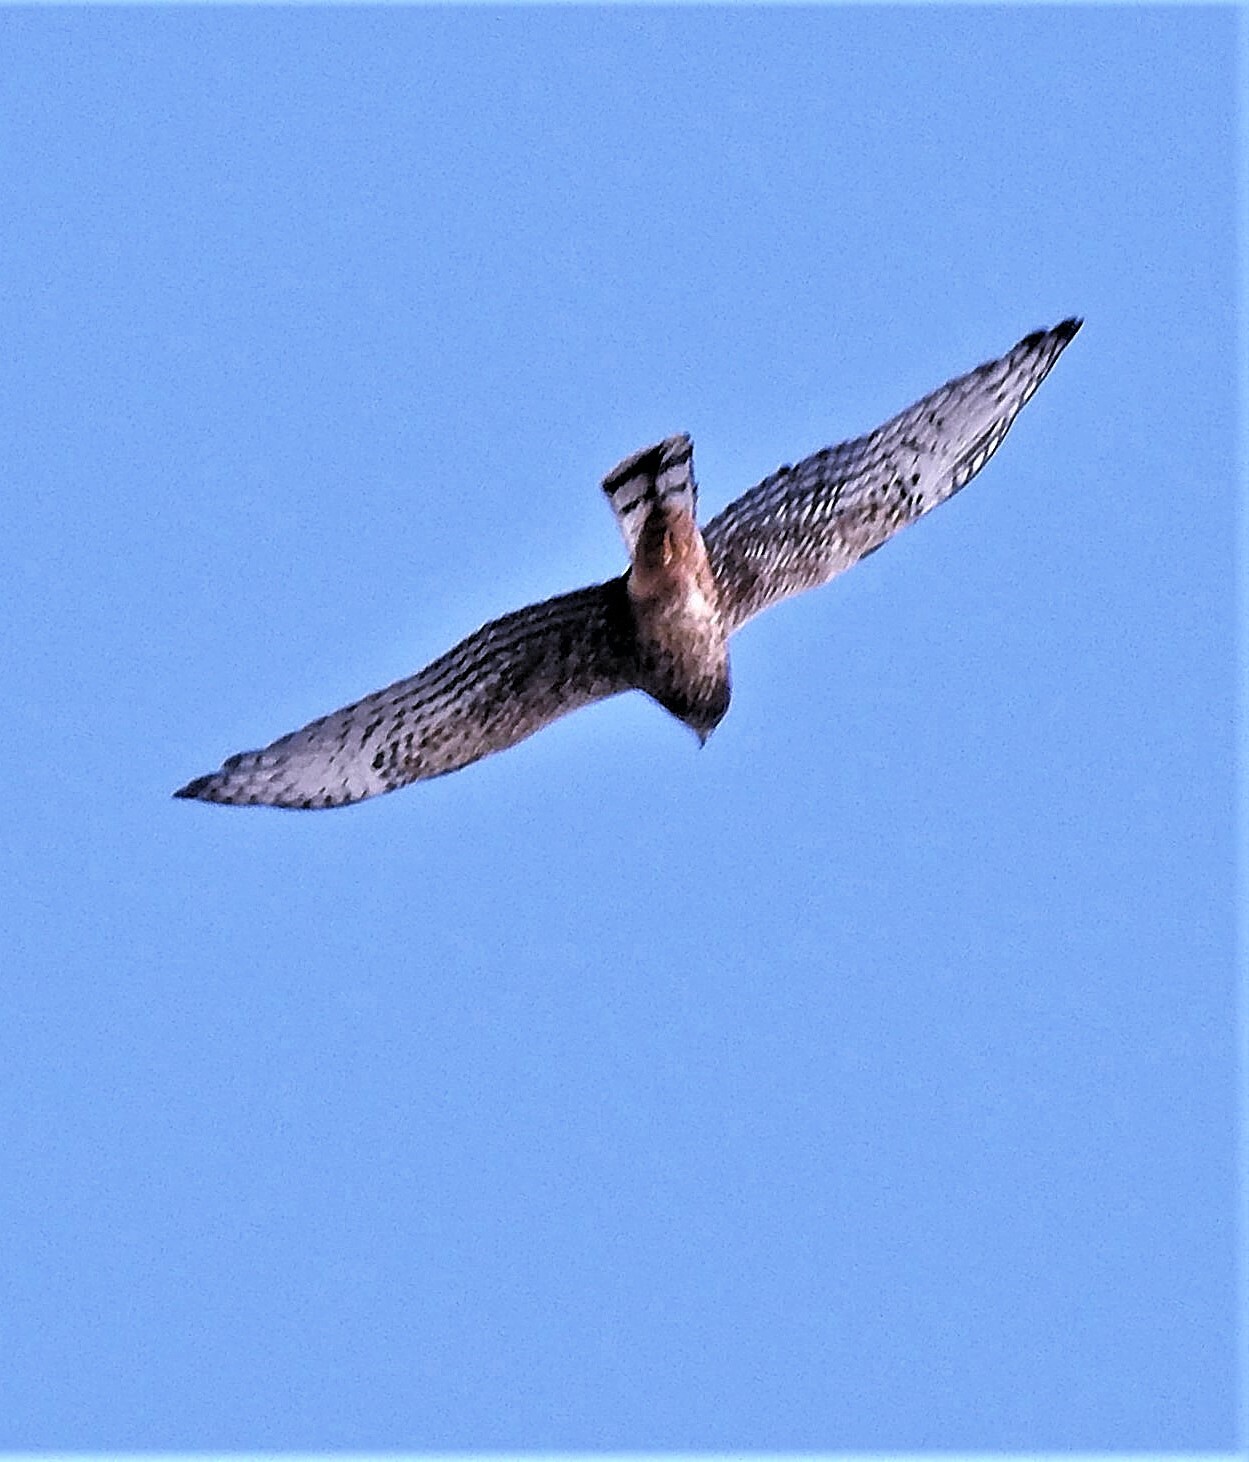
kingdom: Animalia
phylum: Chordata
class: Aves
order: Accipitriformes
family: Accipitridae
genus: Circus
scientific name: Circus cinereus
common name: Cinereous harrier
